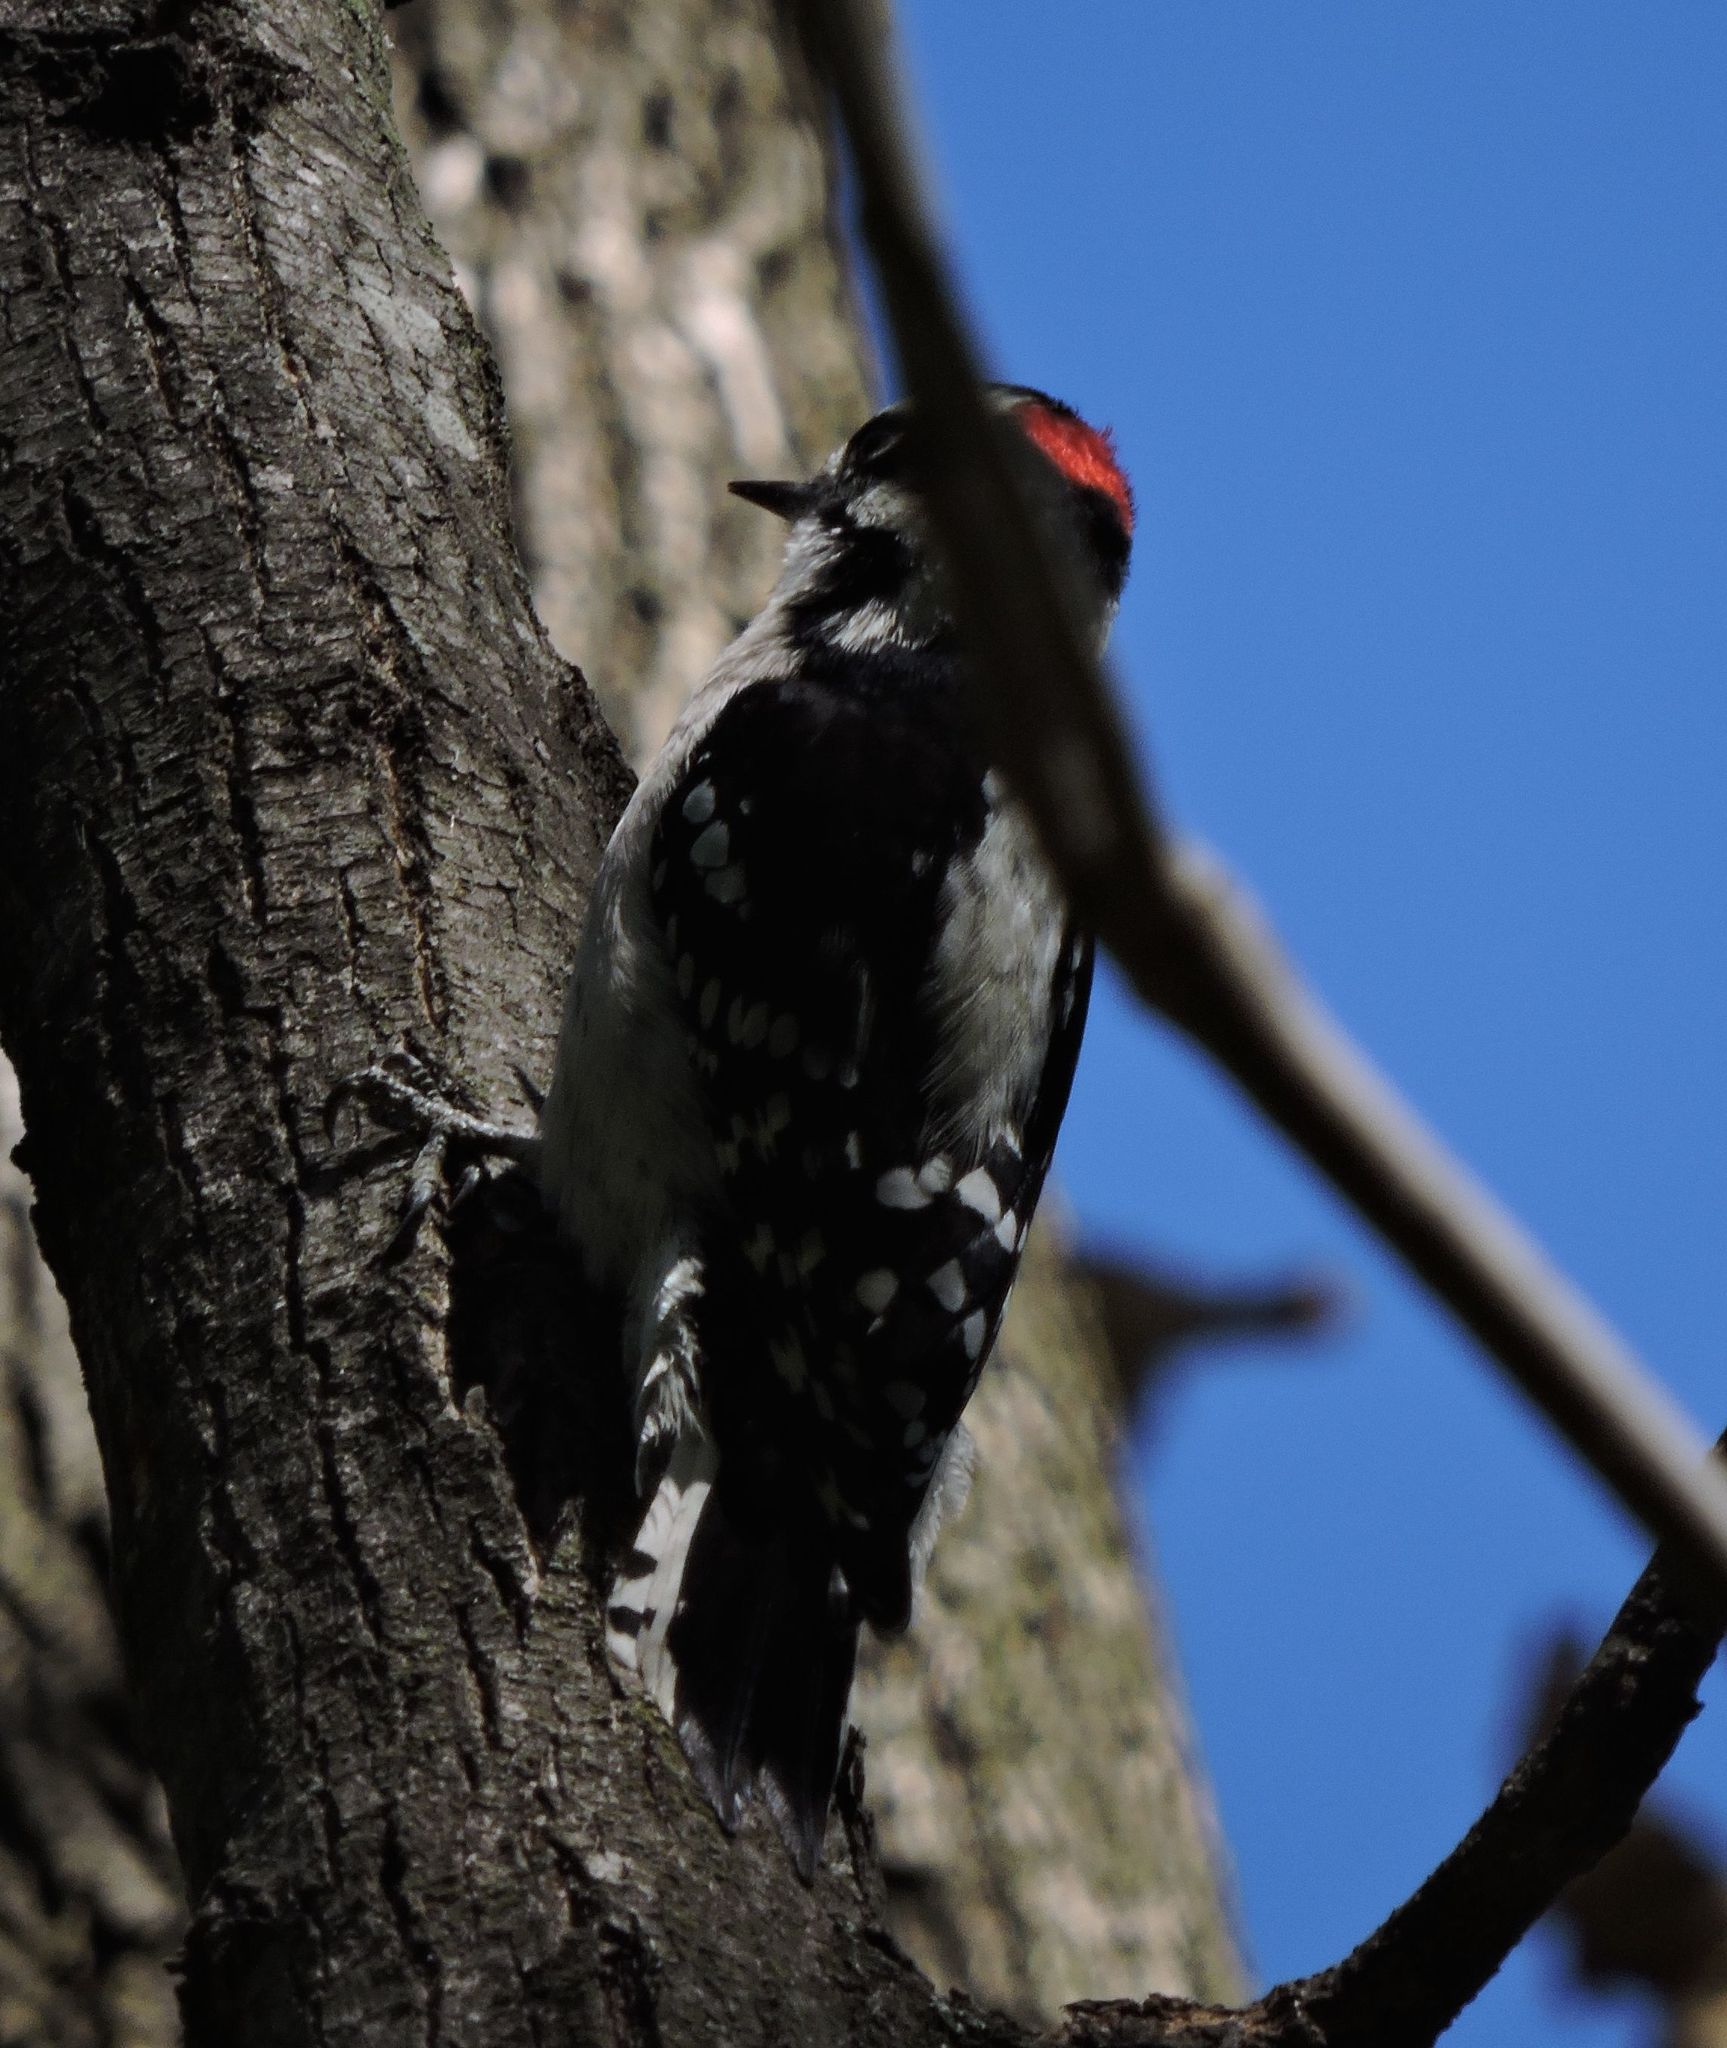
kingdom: Animalia
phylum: Chordata
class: Aves
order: Piciformes
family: Picidae
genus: Dryobates
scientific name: Dryobates pubescens
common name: Downy woodpecker
